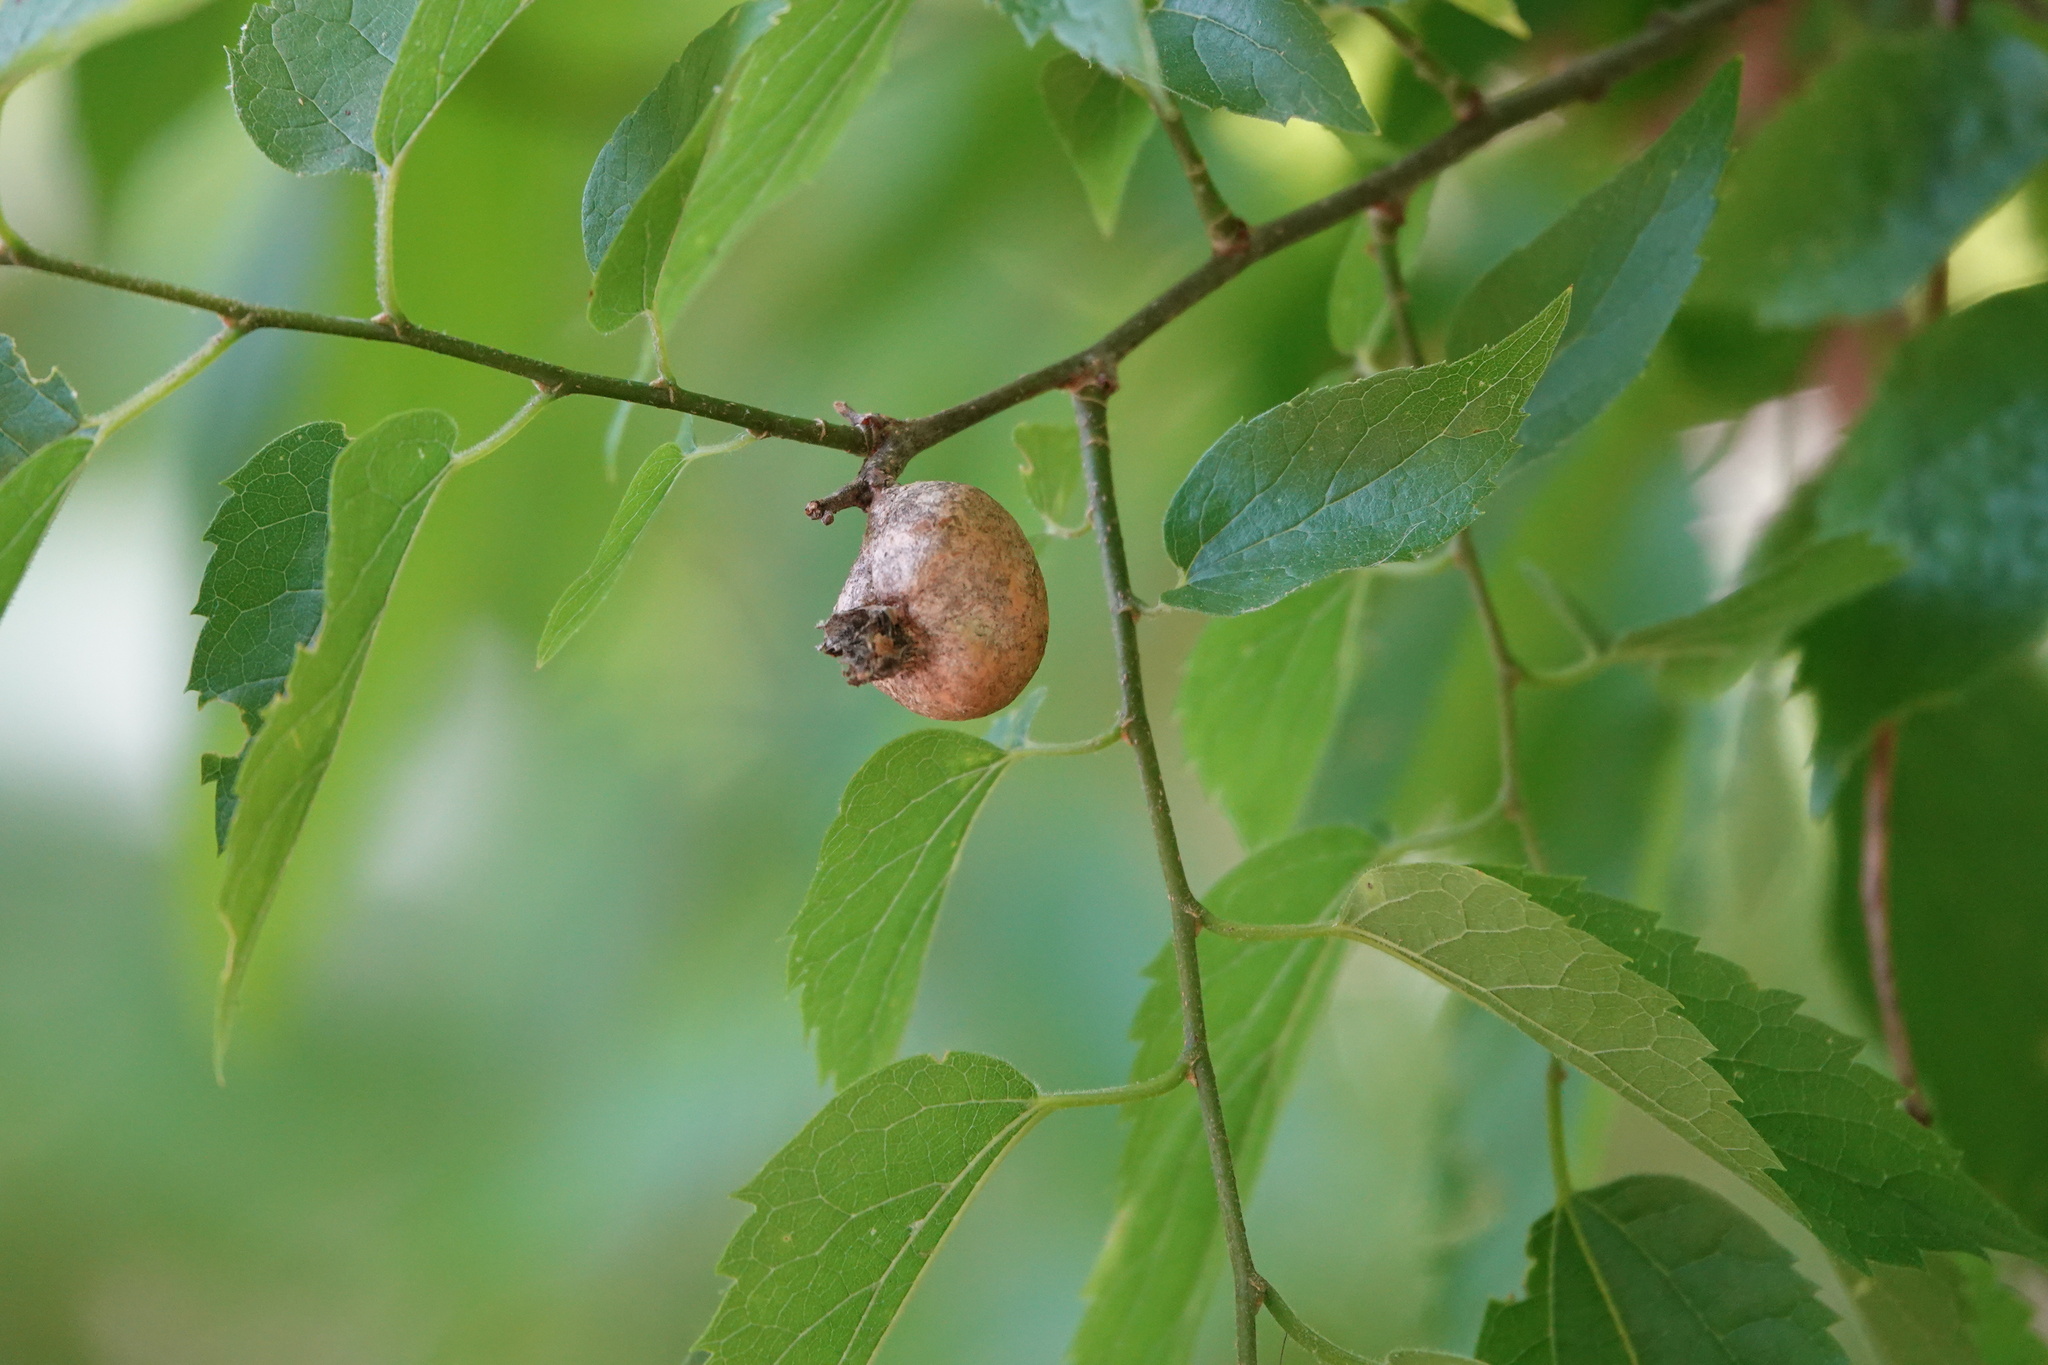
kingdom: Animalia
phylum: Arthropoda
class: Insecta
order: Hemiptera
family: Aphalaridae
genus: Pachypsylla
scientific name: Pachypsylla venusta
